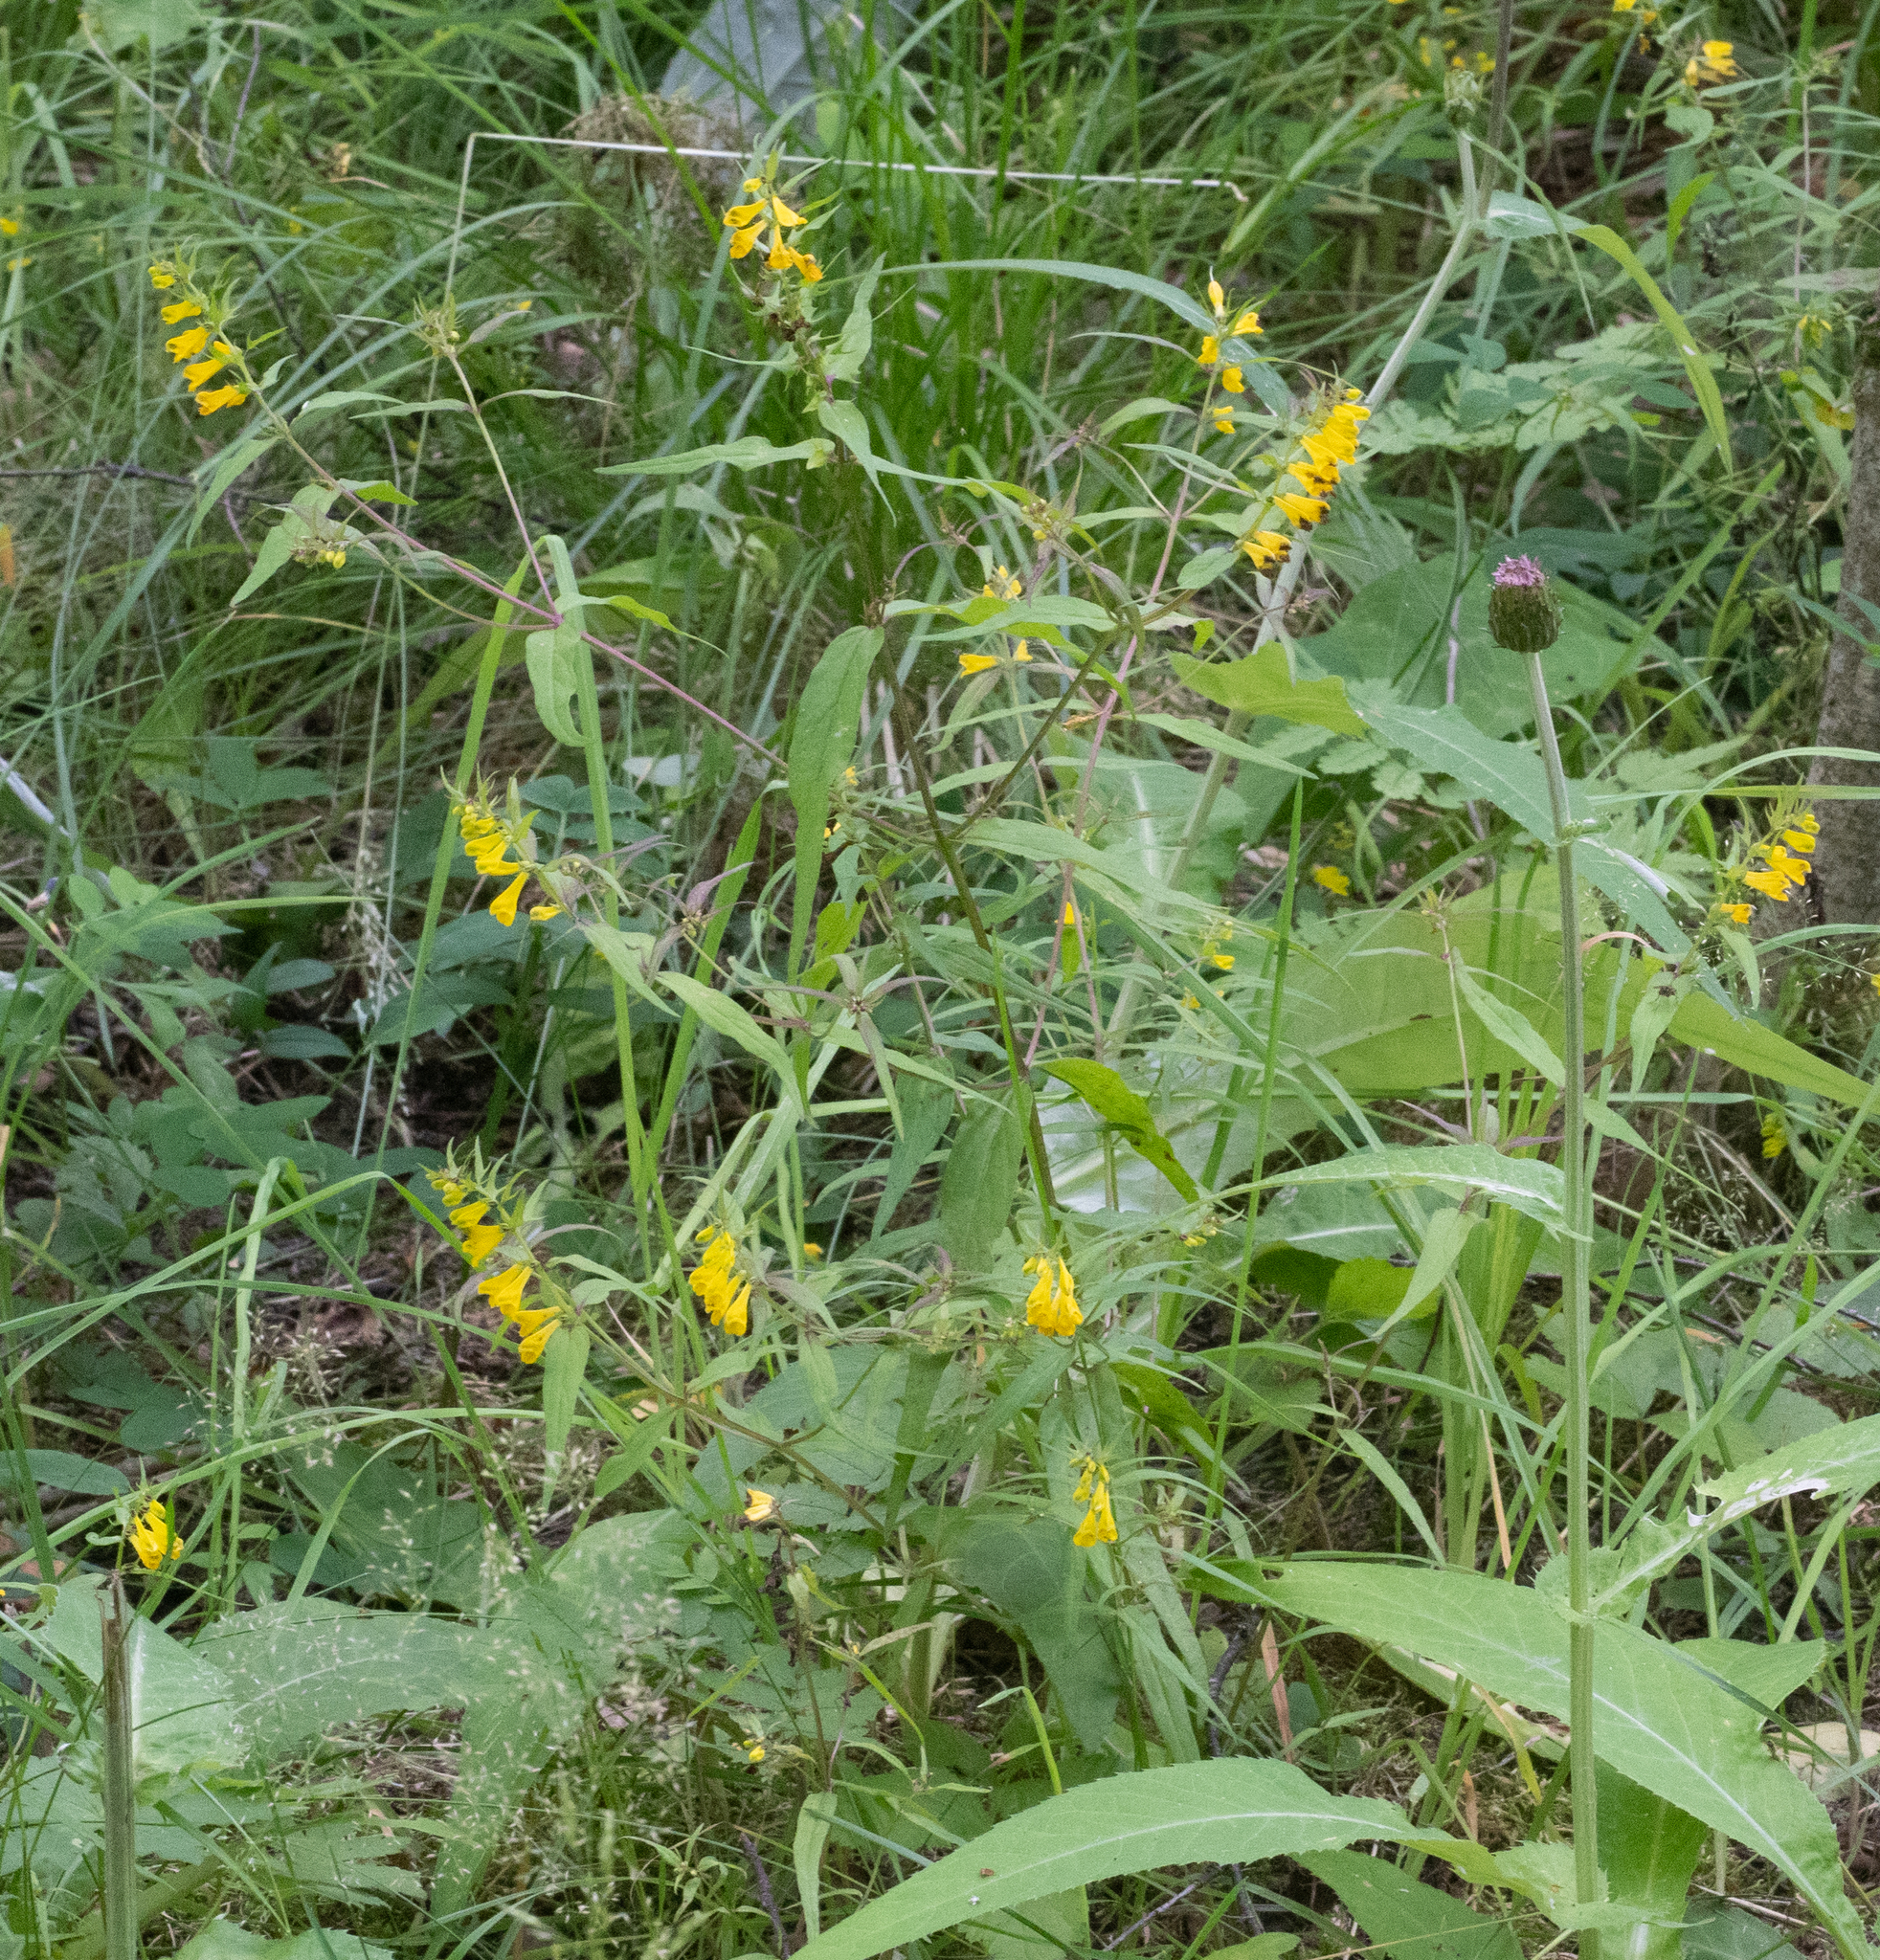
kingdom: Plantae
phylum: Tracheophyta
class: Magnoliopsida
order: Lamiales
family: Orobanchaceae
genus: Melampyrum
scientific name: Melampyrum pratense
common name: Common cow-wheat
